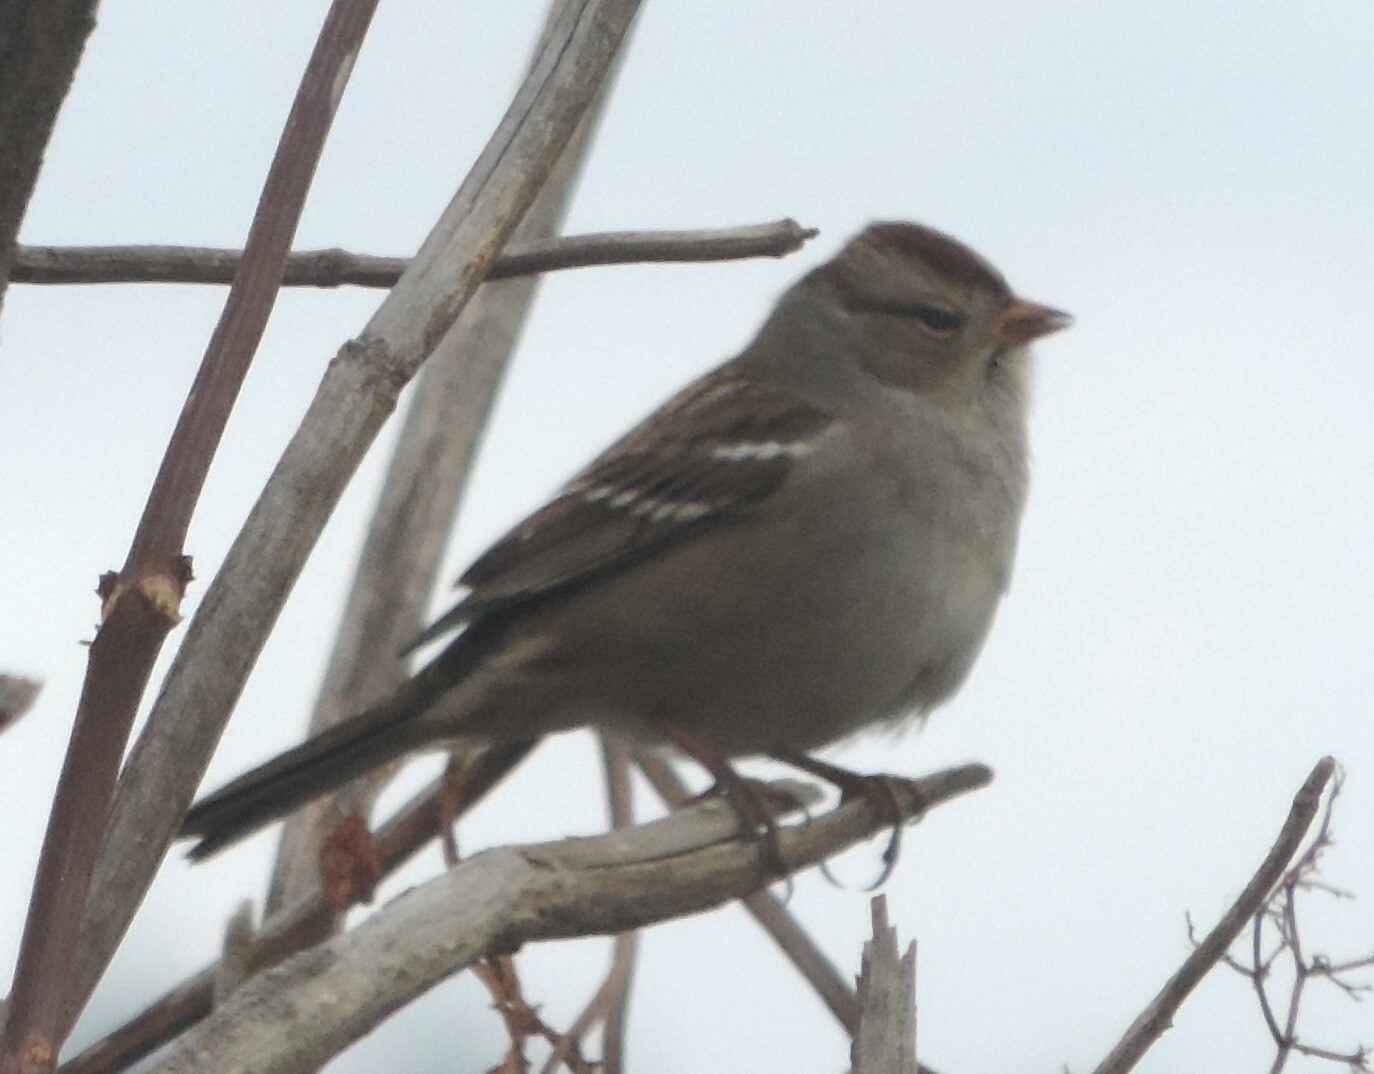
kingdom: Animalia
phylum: Chordata
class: Aves
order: Passeriformes
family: Passerellidae
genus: Zonotrichia
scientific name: Zonotrichia leucophrys
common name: White-crowned sparrow
